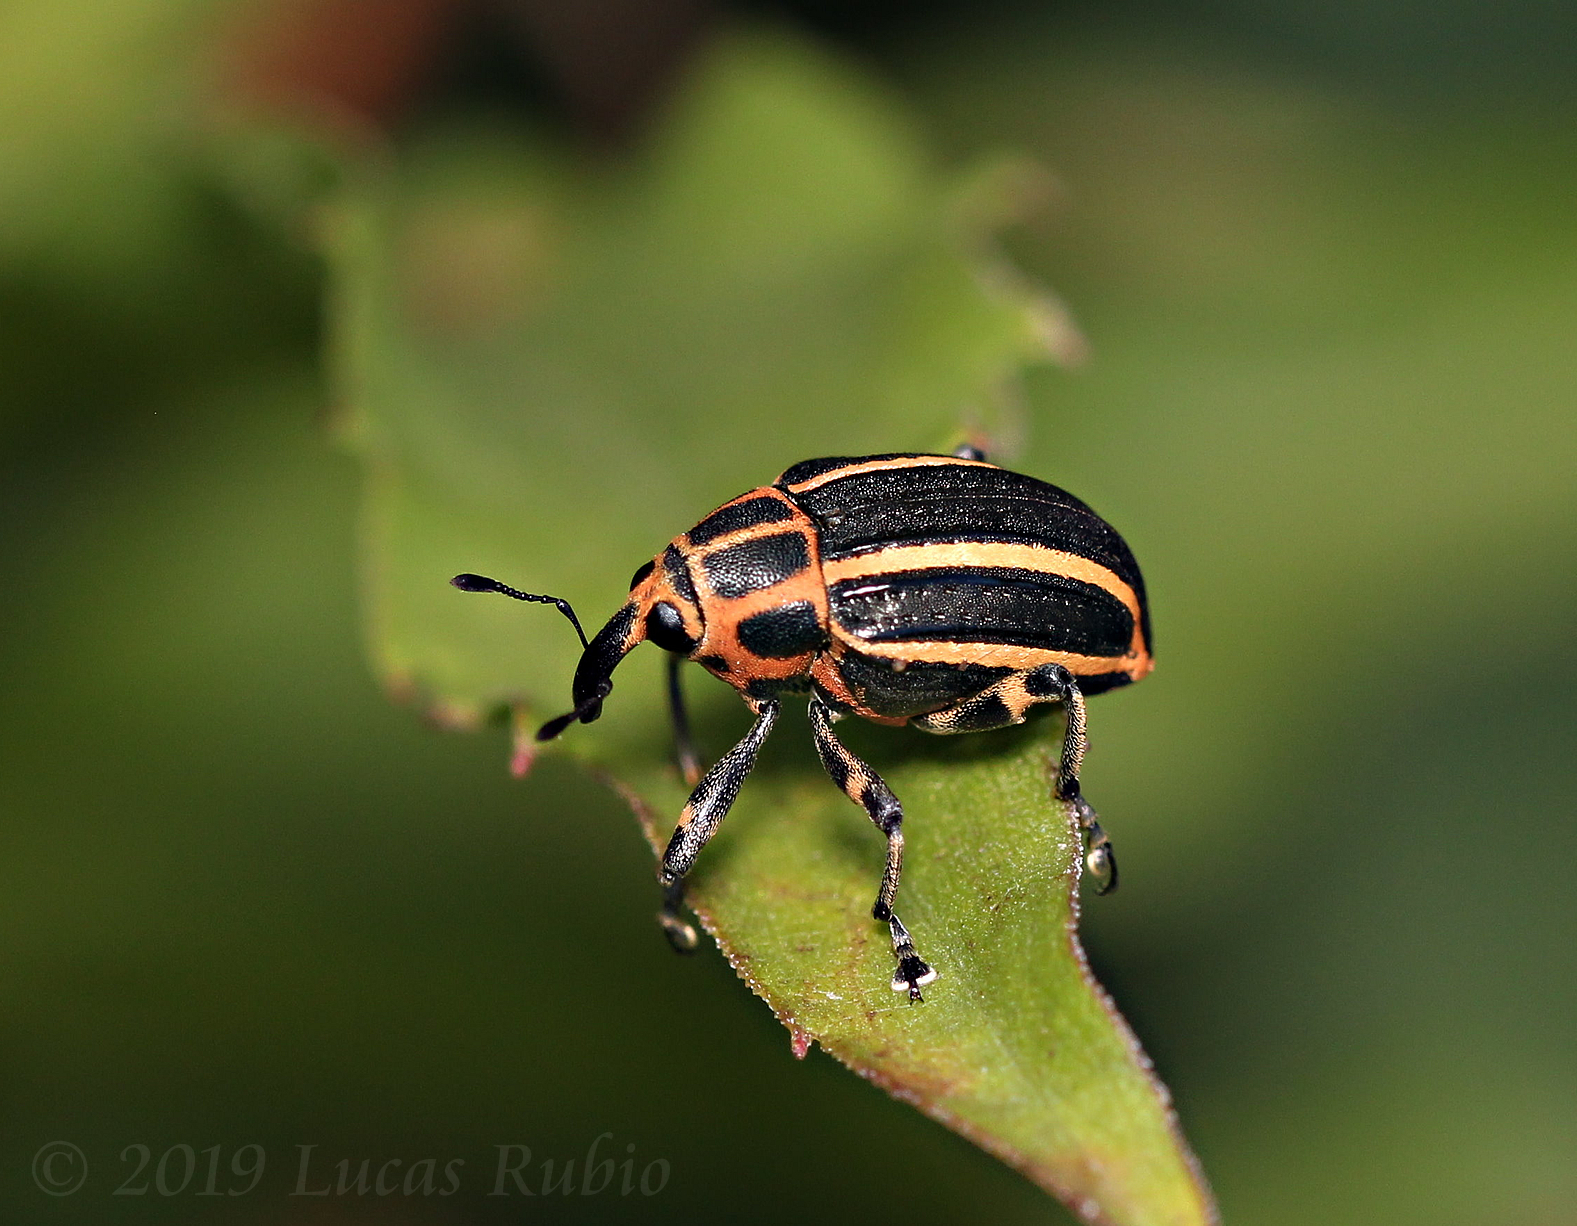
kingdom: Animalia
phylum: Arthropoda
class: Insecta
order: Coleoptera
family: Curculionidae
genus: Neodiplogrammus
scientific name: Neodiplogrammus
